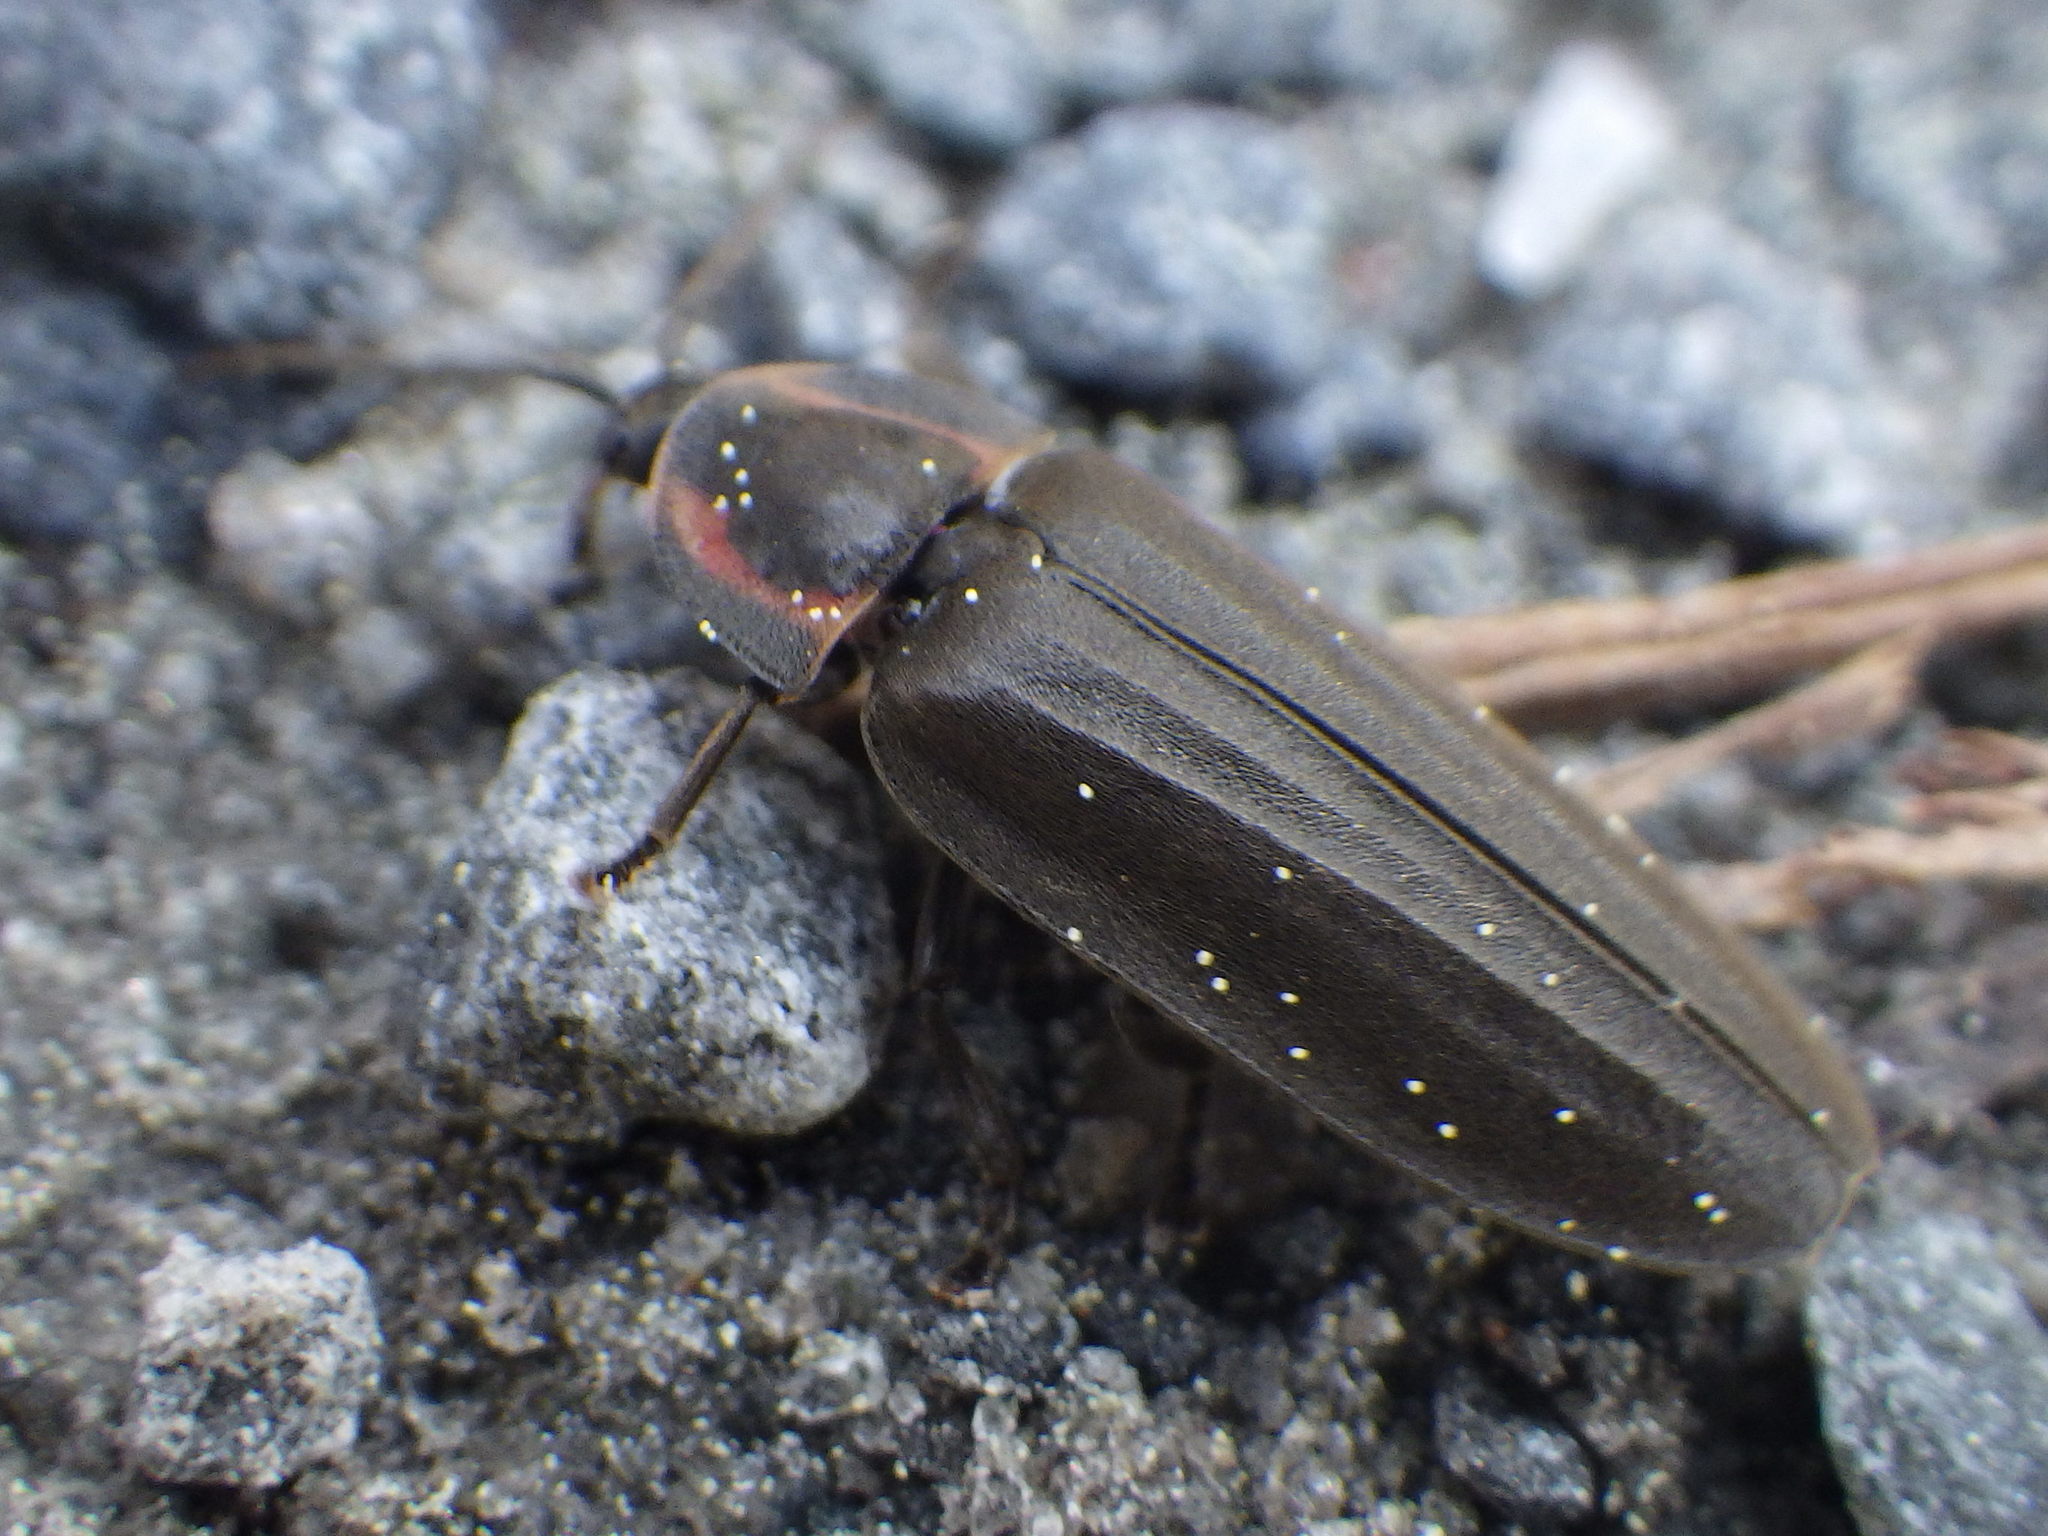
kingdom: Animalia
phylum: Arthropoda
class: Insecta
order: Coleoptera
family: Lampyridae
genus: Photinus
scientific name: Photinus corrusca
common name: Winter firefly
